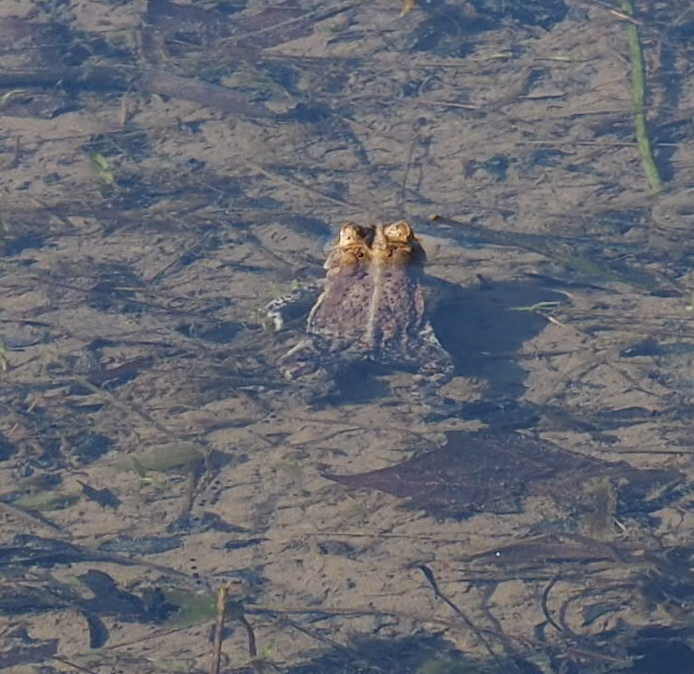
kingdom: Animalia
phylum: Chordata
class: Amphibia
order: Anura
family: Bufonidae
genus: Anaxyrus
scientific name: Anaxyrus americanus
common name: American toad
